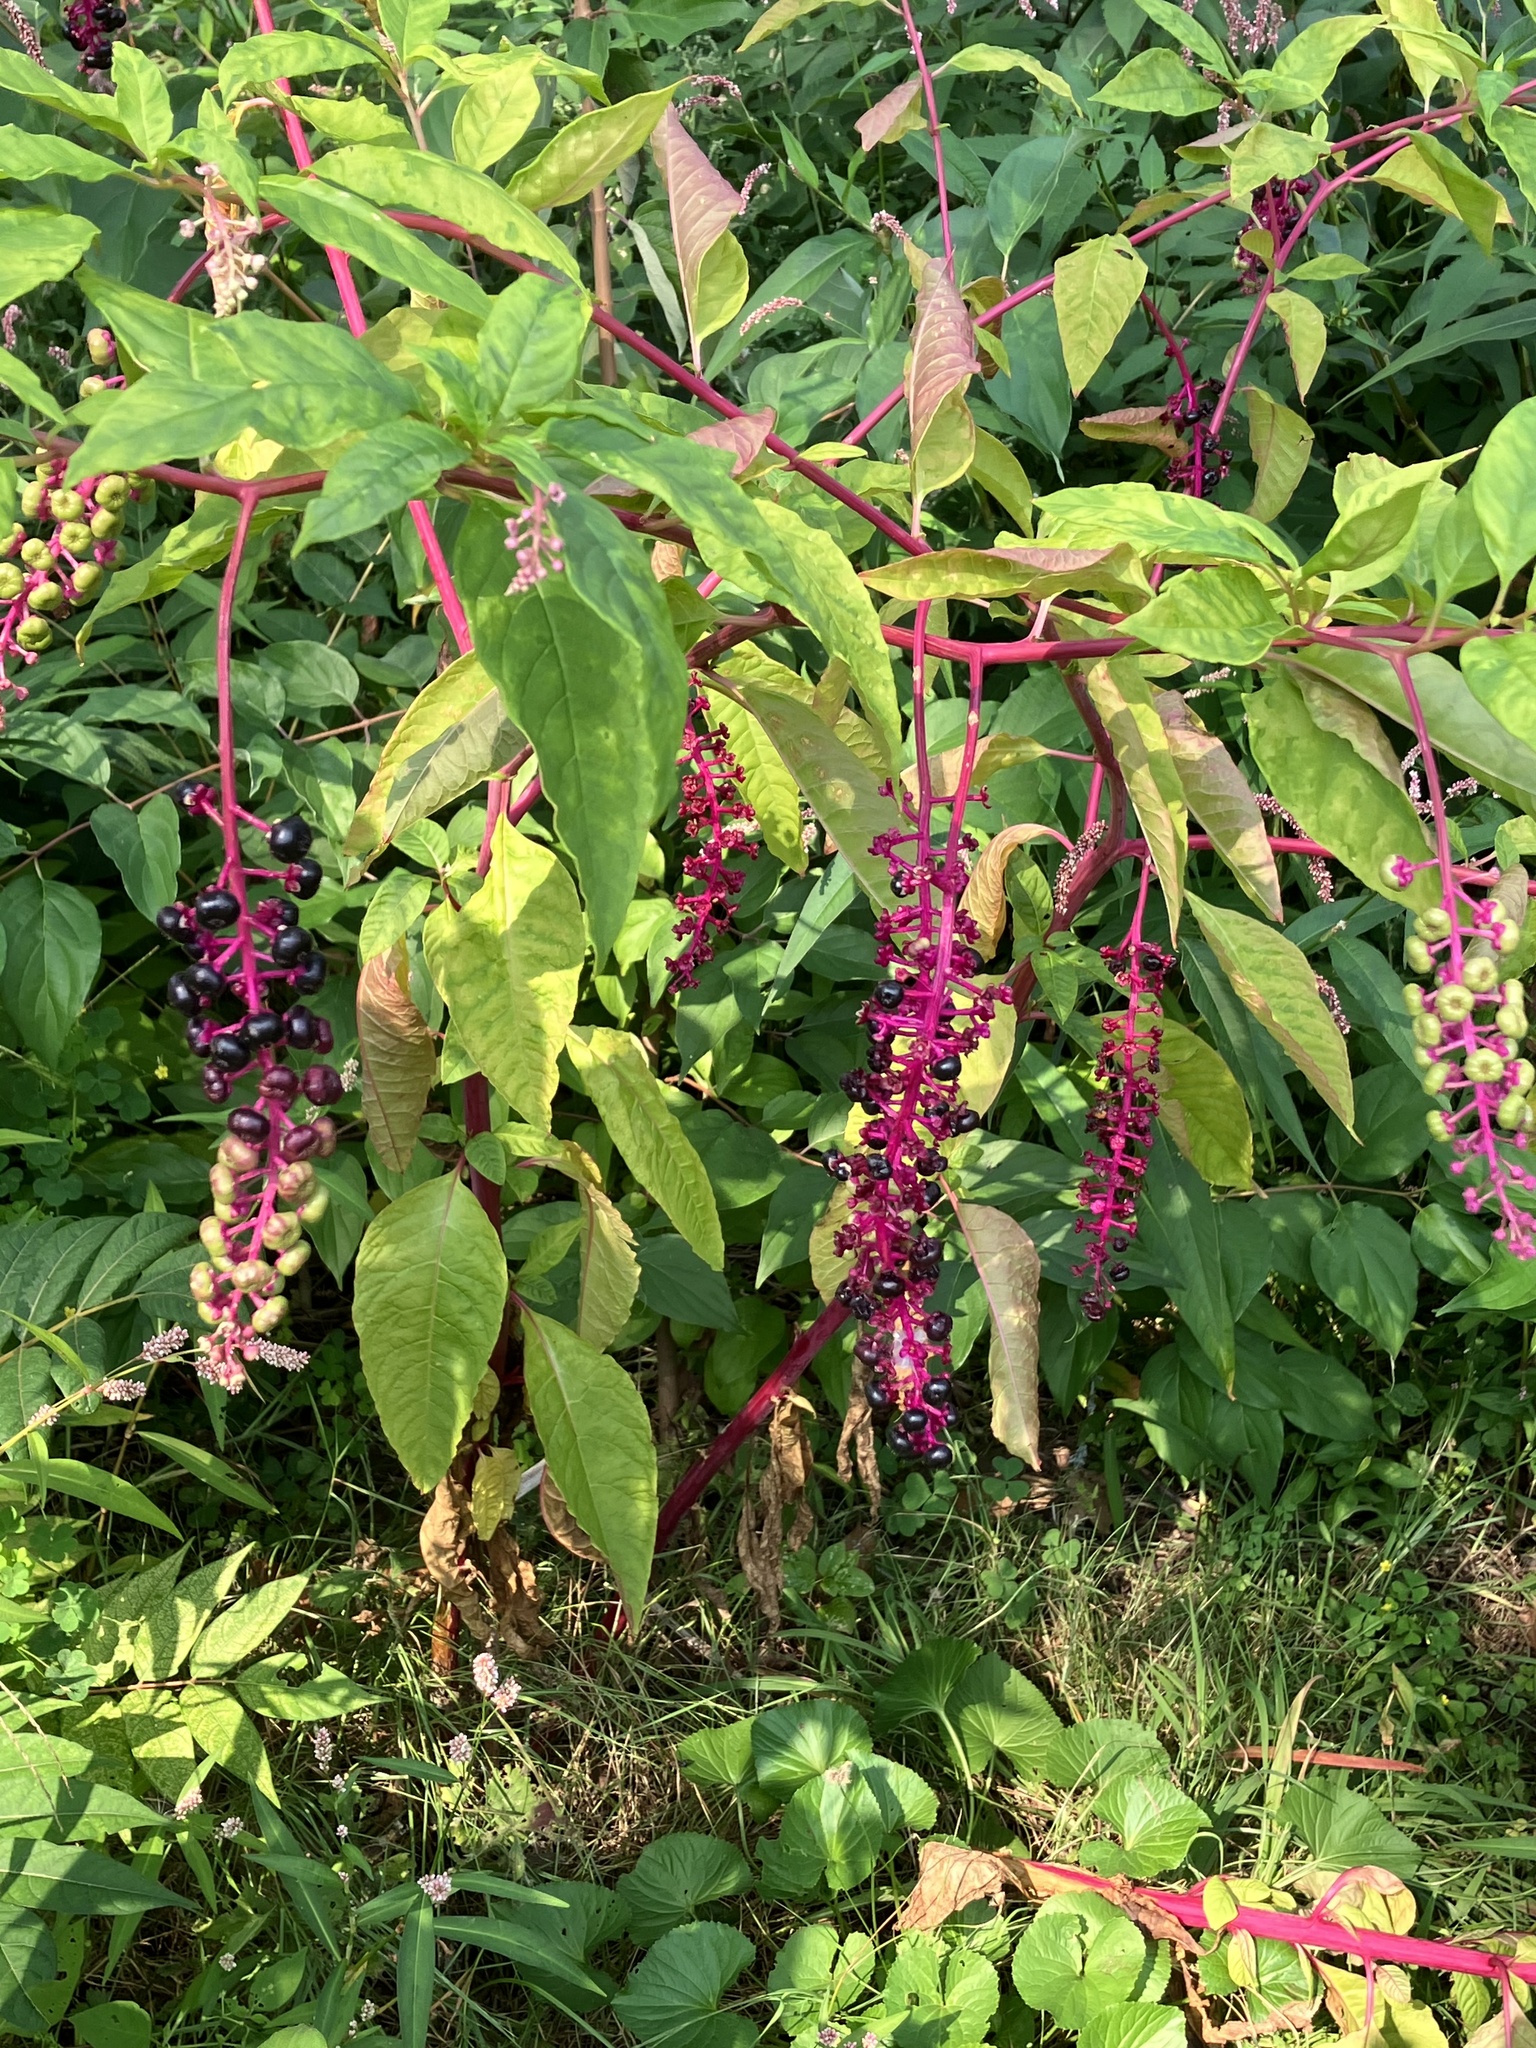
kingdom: Plantae
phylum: Tracheophyta
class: Magnoliopsida
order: Caryophyllales
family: Phytolaccaceae
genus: Phytolacca
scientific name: Phytolacca americana
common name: American pokeweed
